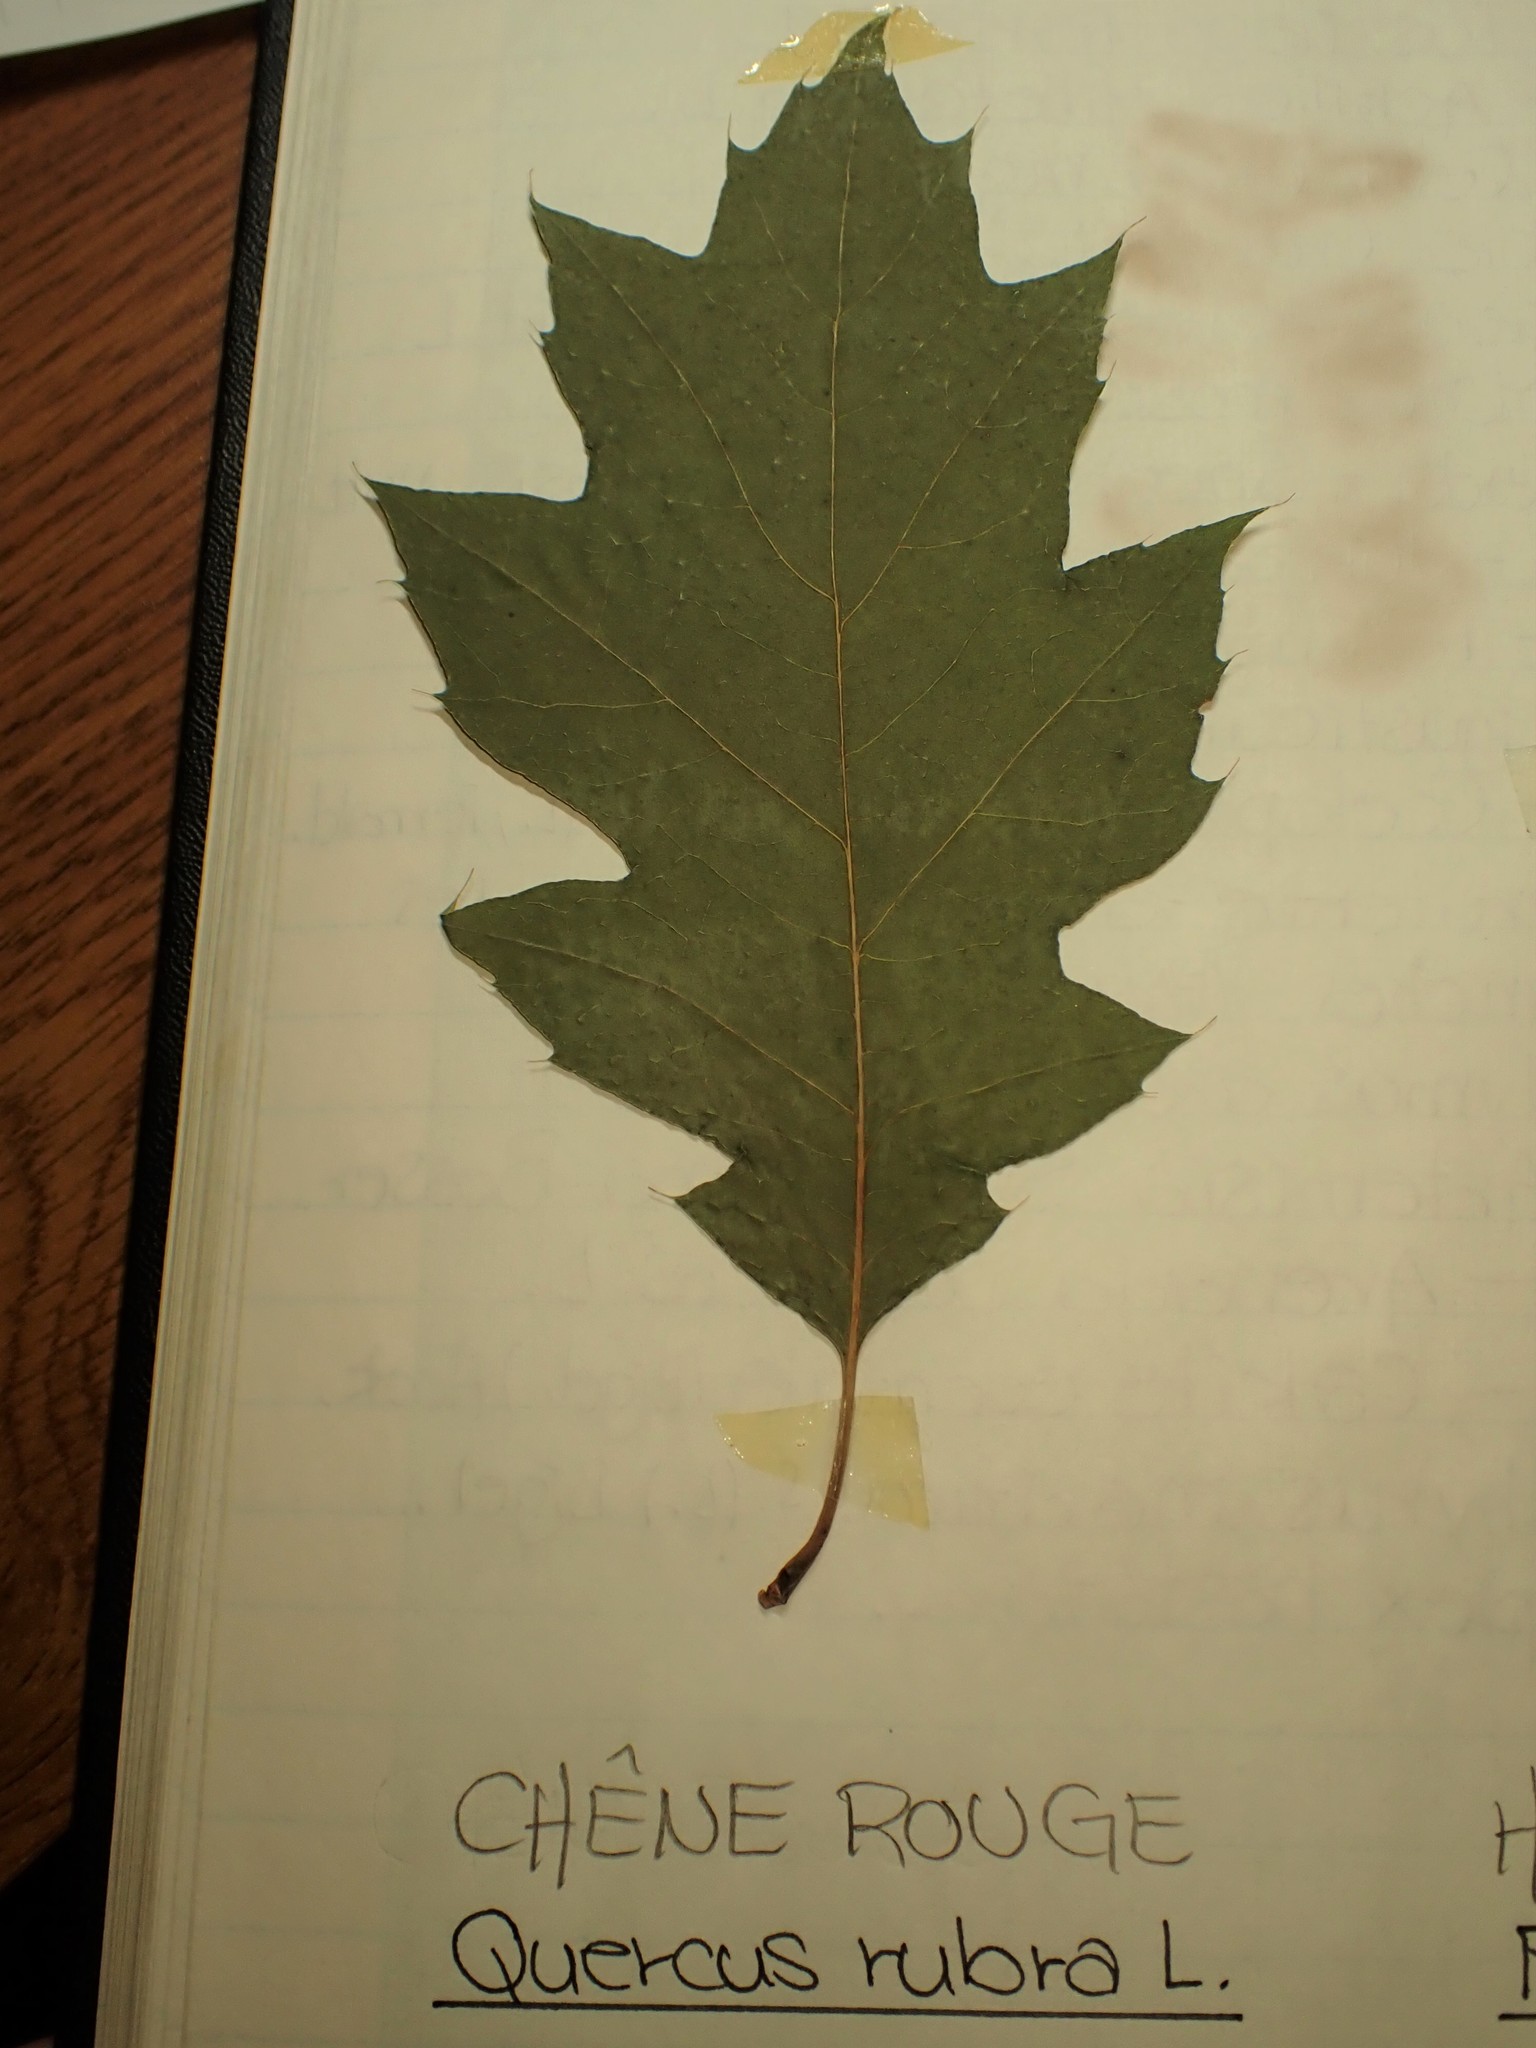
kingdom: Plantae
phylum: Tracheophyta
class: Magnoliopsida
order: Fagales
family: Fagaceae
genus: Quercus
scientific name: Quercus rubra
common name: Red oak
